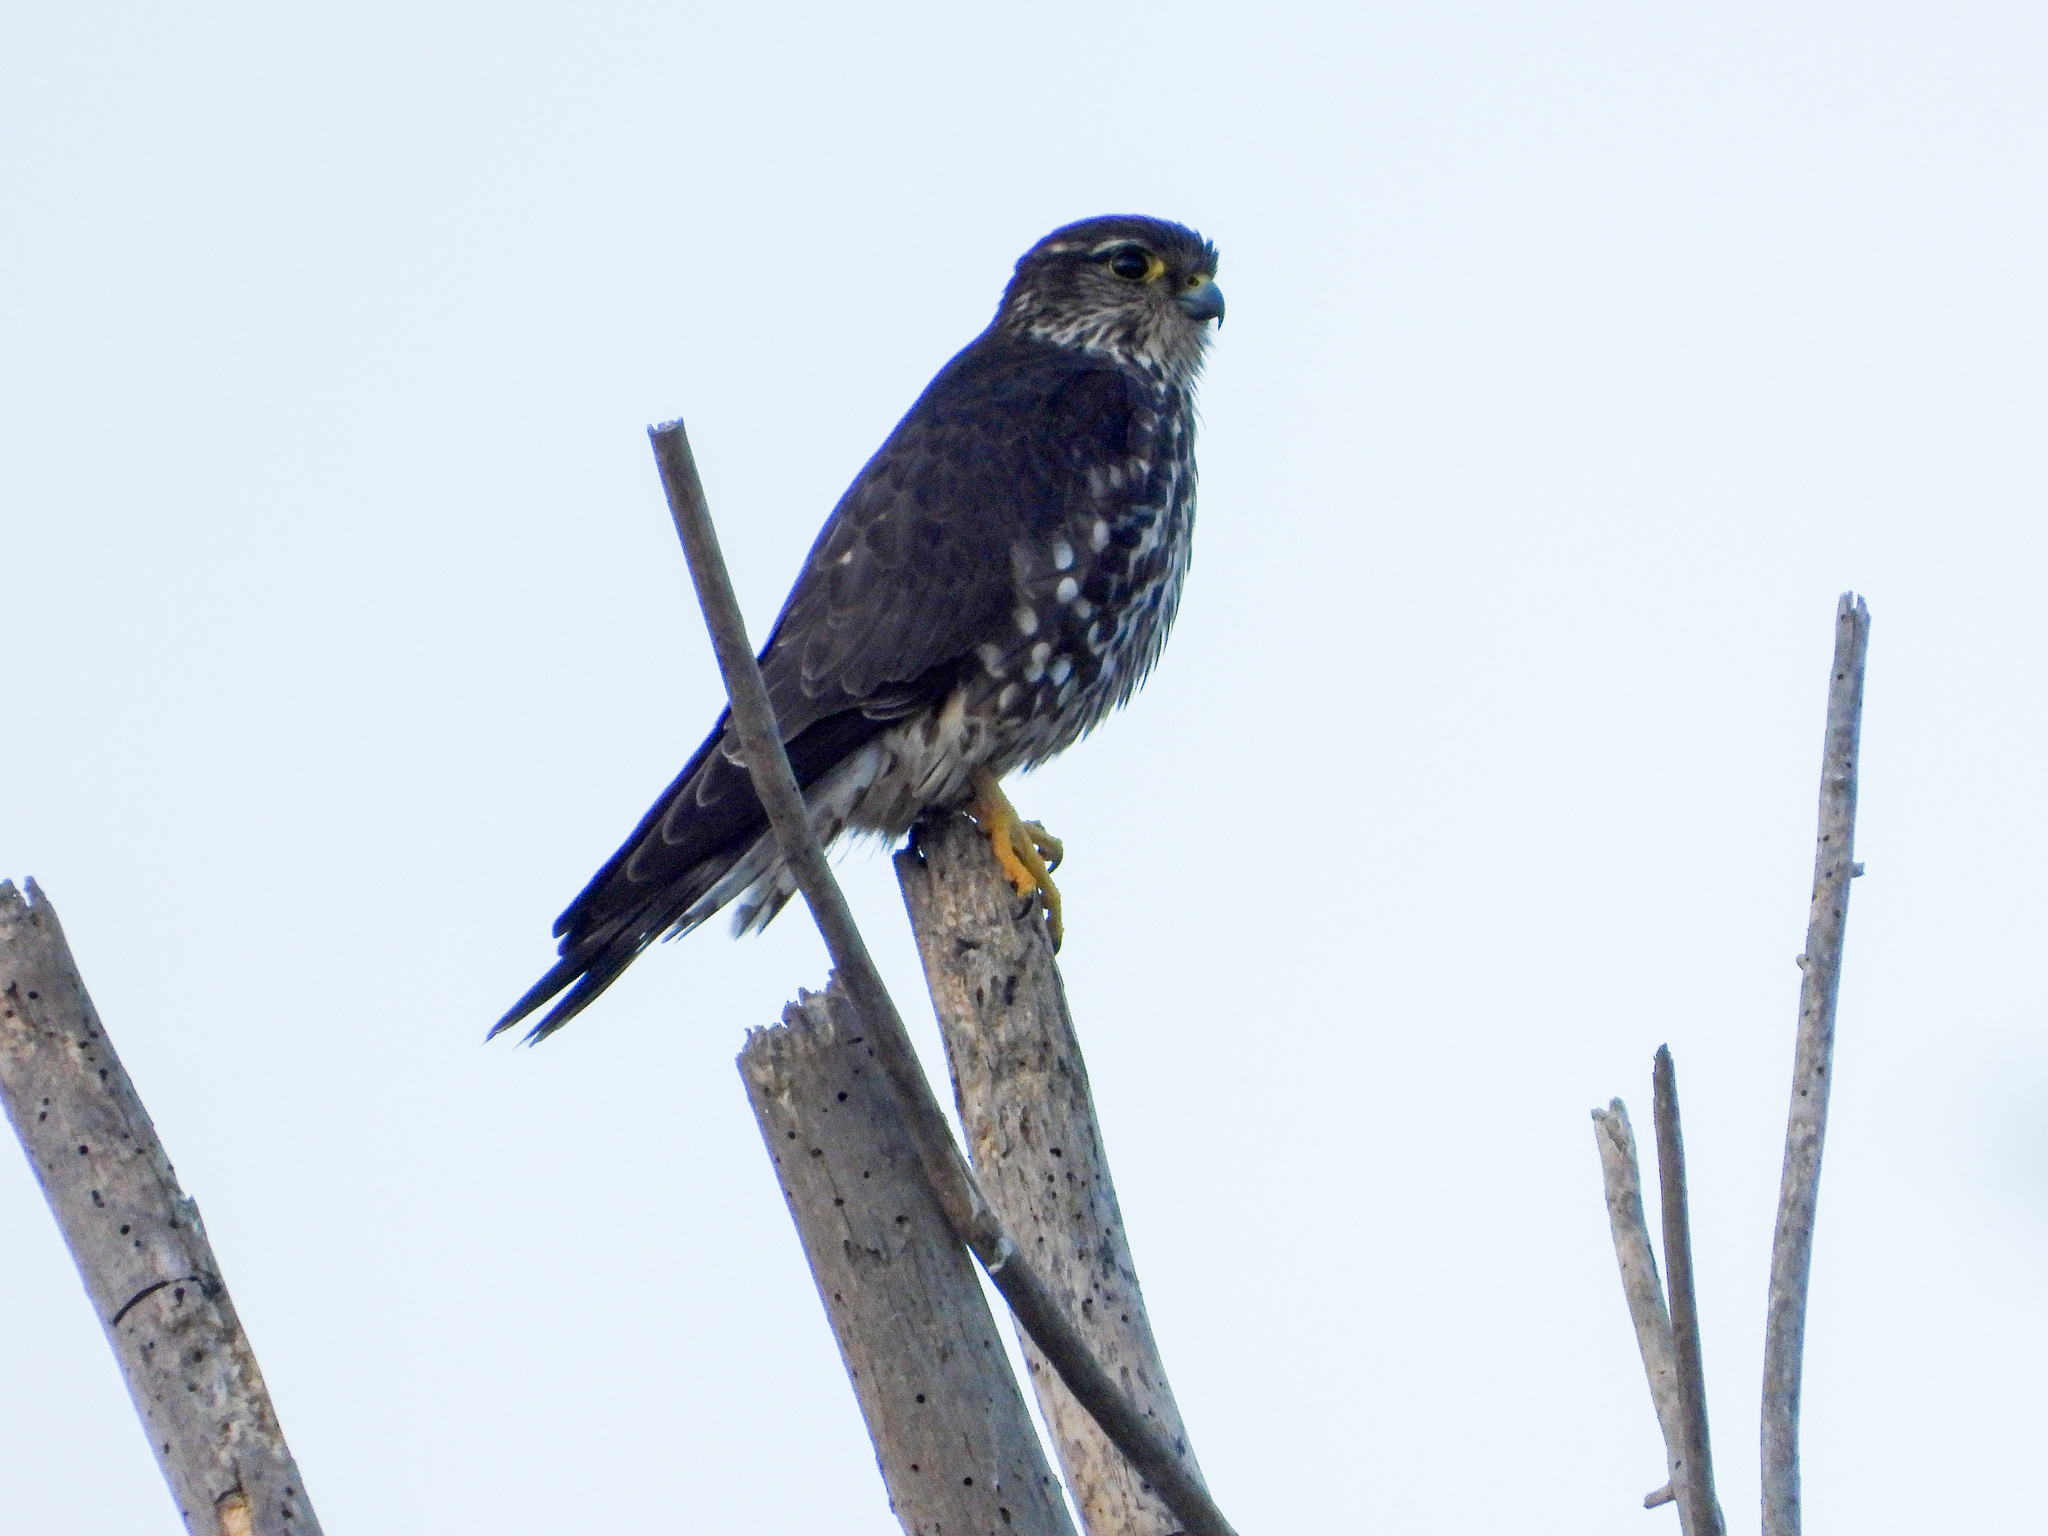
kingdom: Animalia
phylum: Chordata
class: Aves
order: Falconiformes
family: Falconidae
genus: Falco
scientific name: Falco columbarius
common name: Merlin
